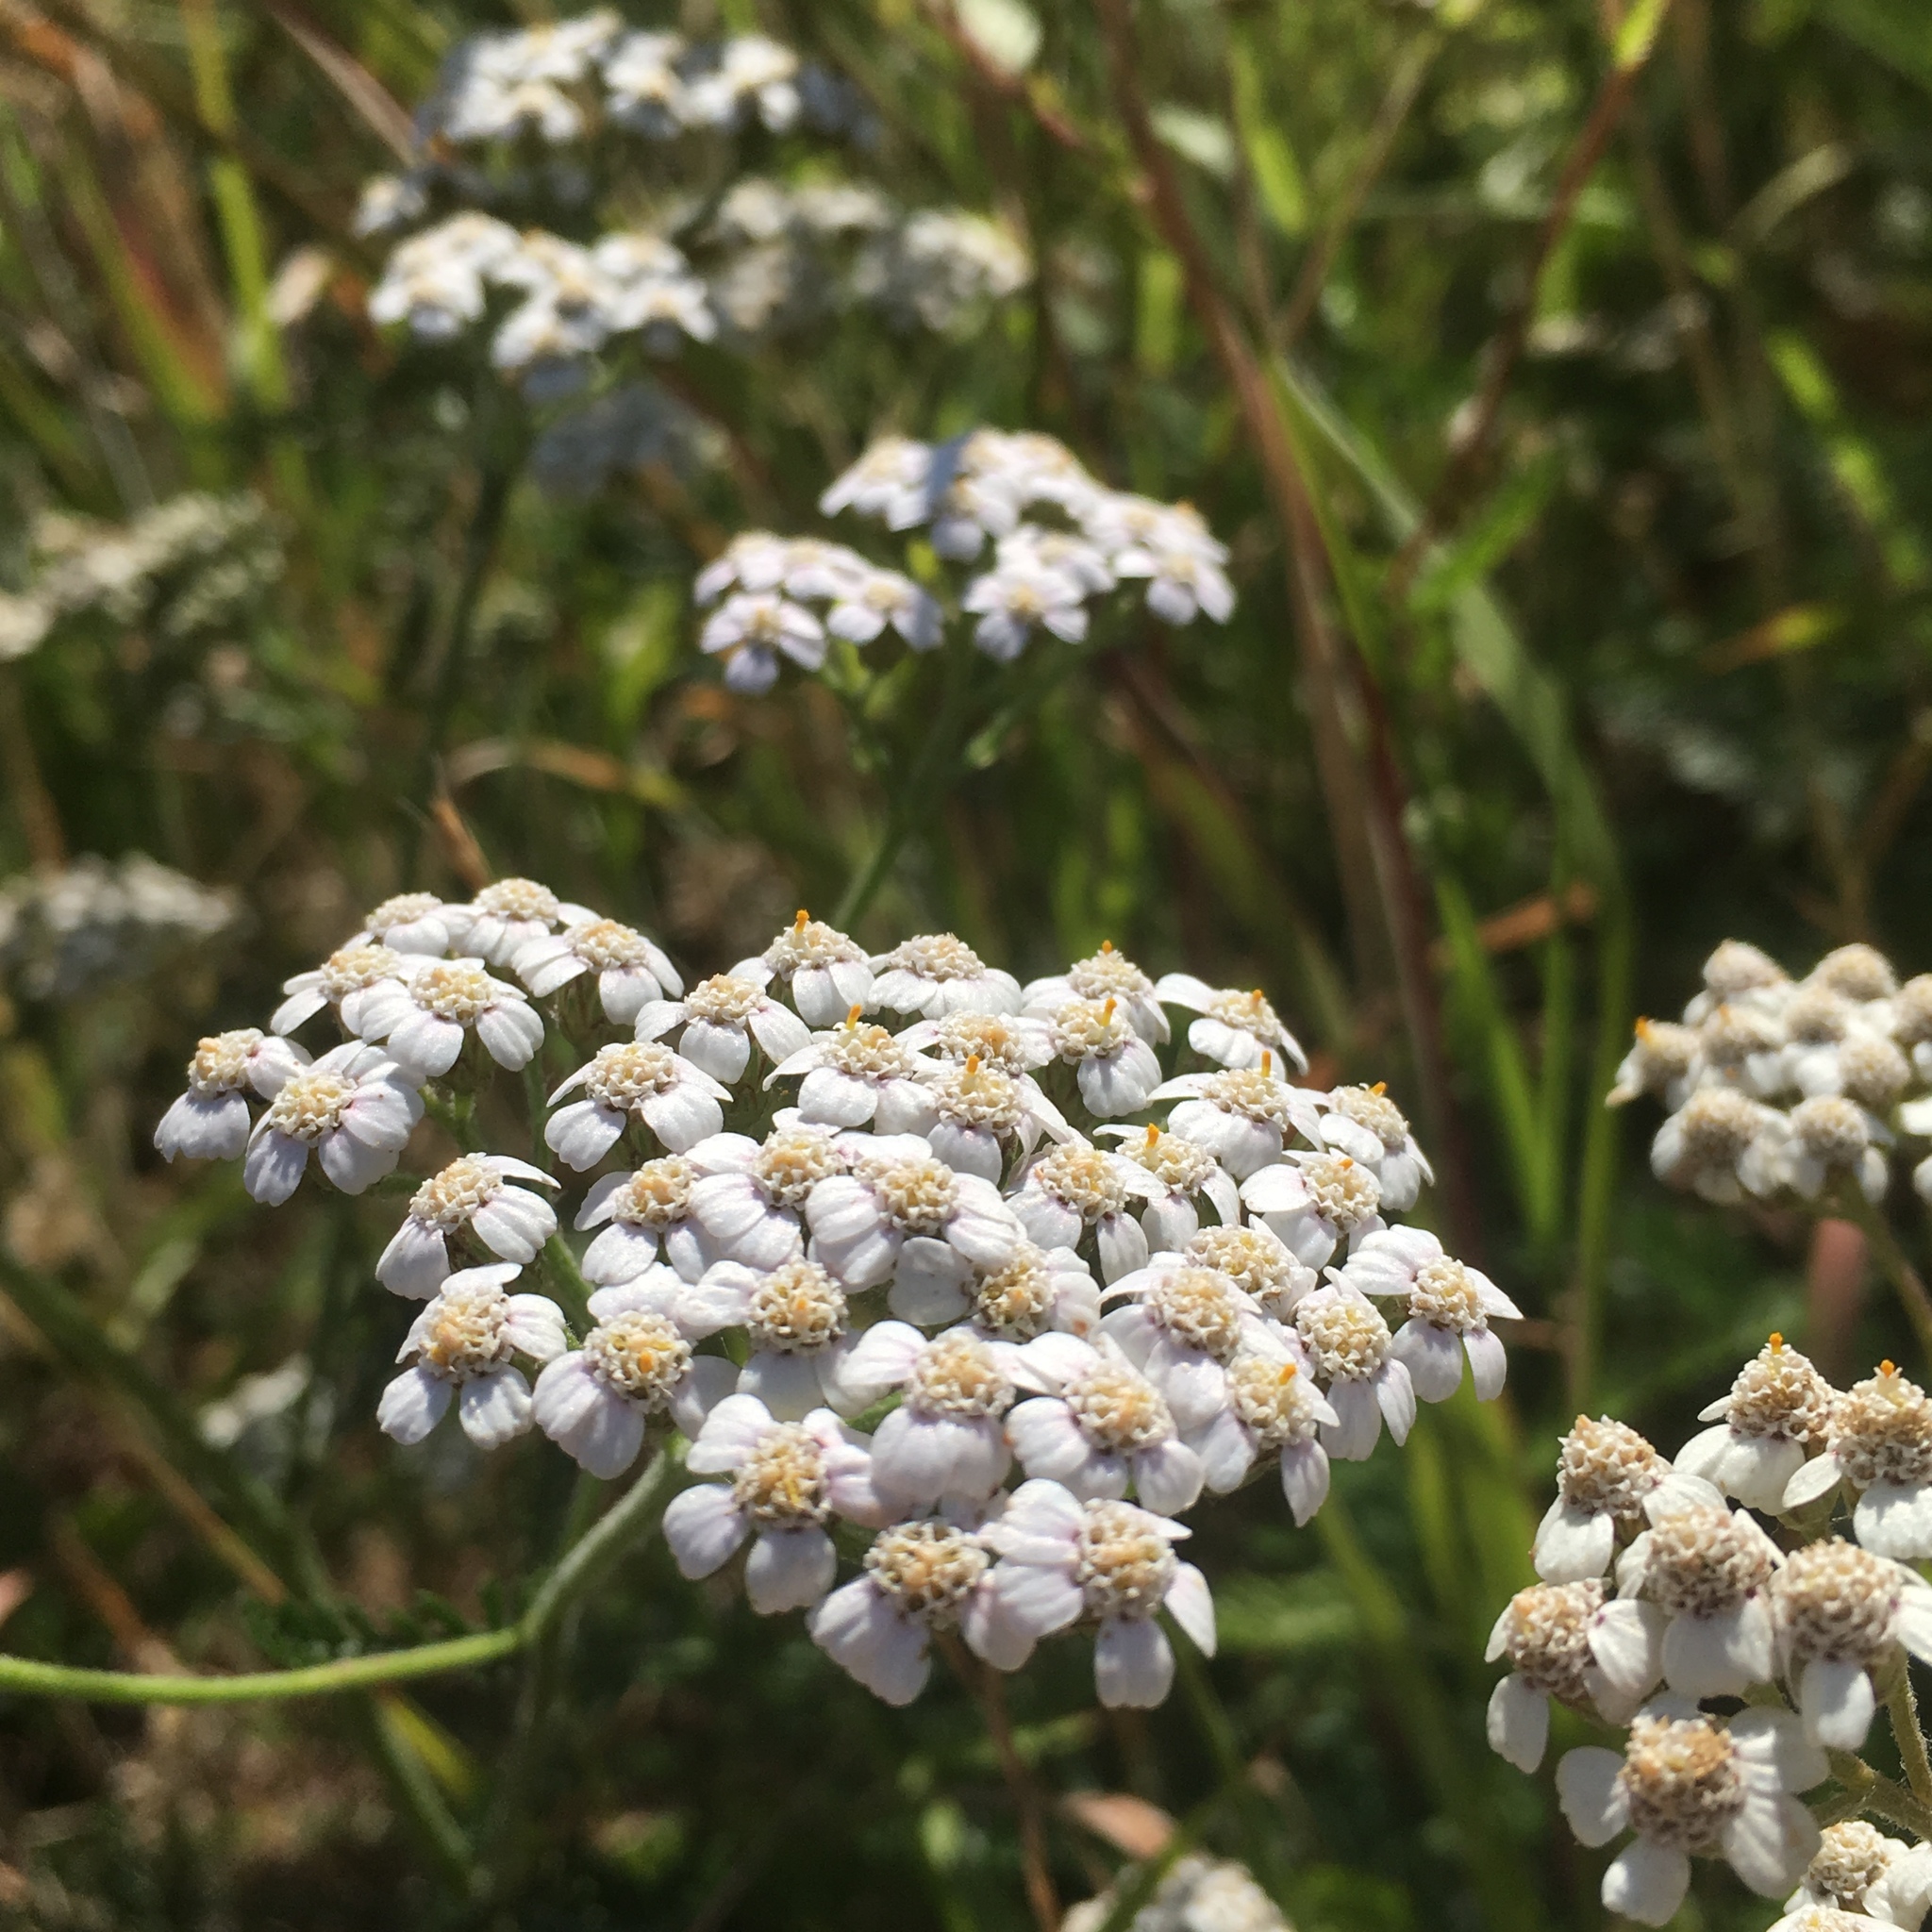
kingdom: Plantae
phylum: Tracheophyta
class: Magnoliopsida
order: Asterales
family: Asteraceae
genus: Achillea
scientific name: Achillea millefolium
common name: Yarrow
